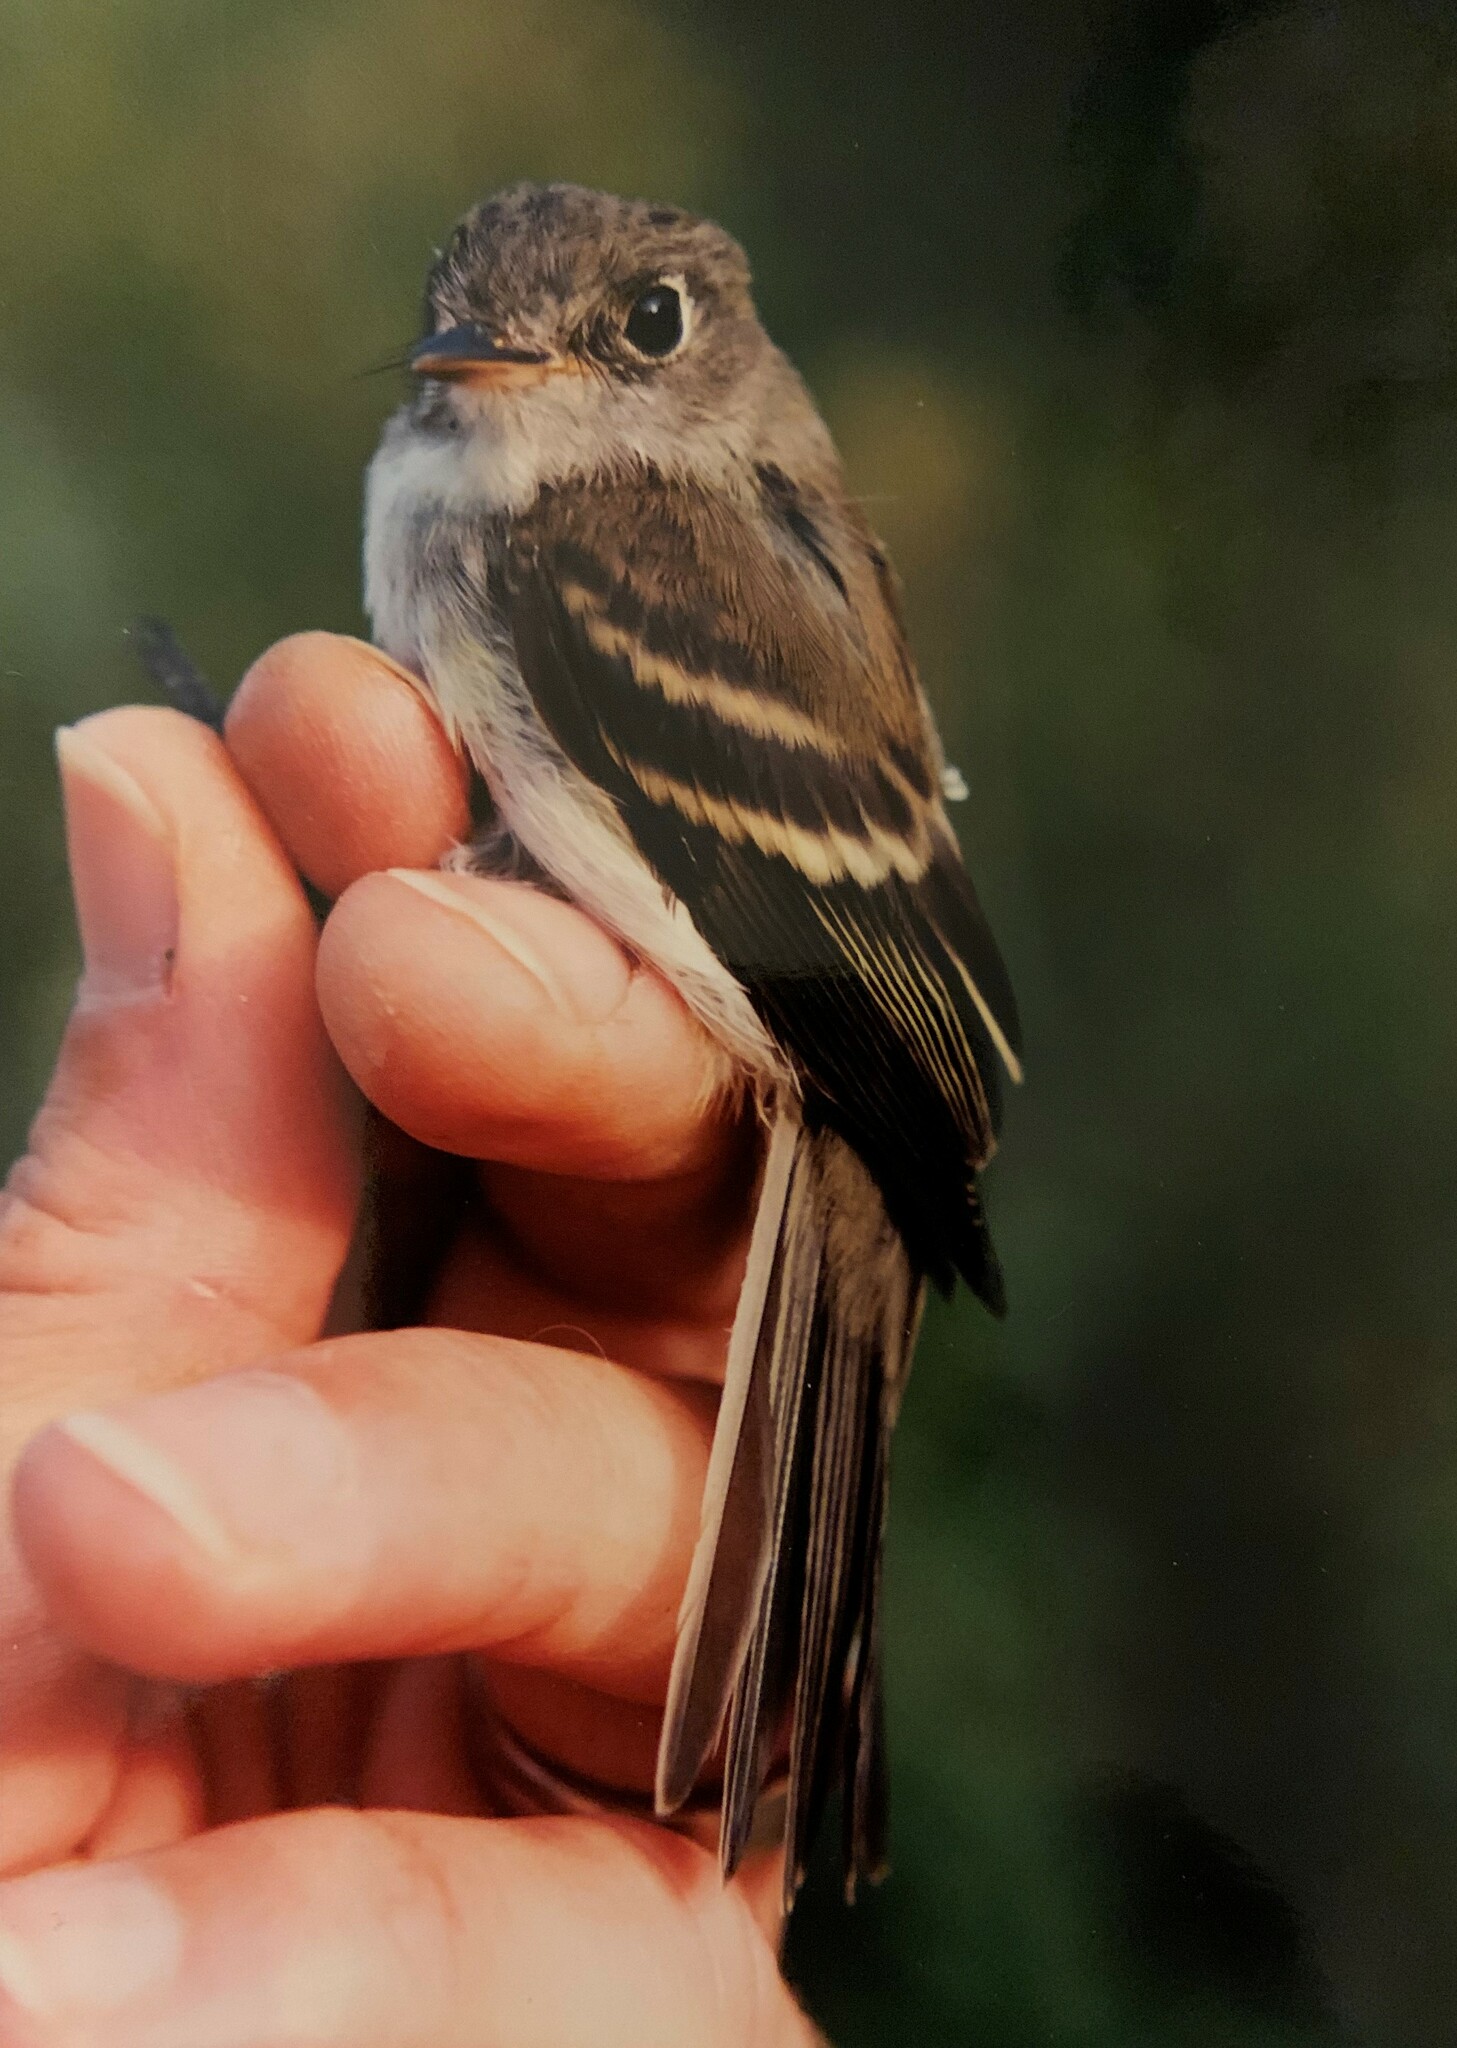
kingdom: Animalia
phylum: Chordata
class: Aves
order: Passeriformes
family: Tyrannidae
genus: Empidonax
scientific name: Empidonax minimus
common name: Least flycatcher
